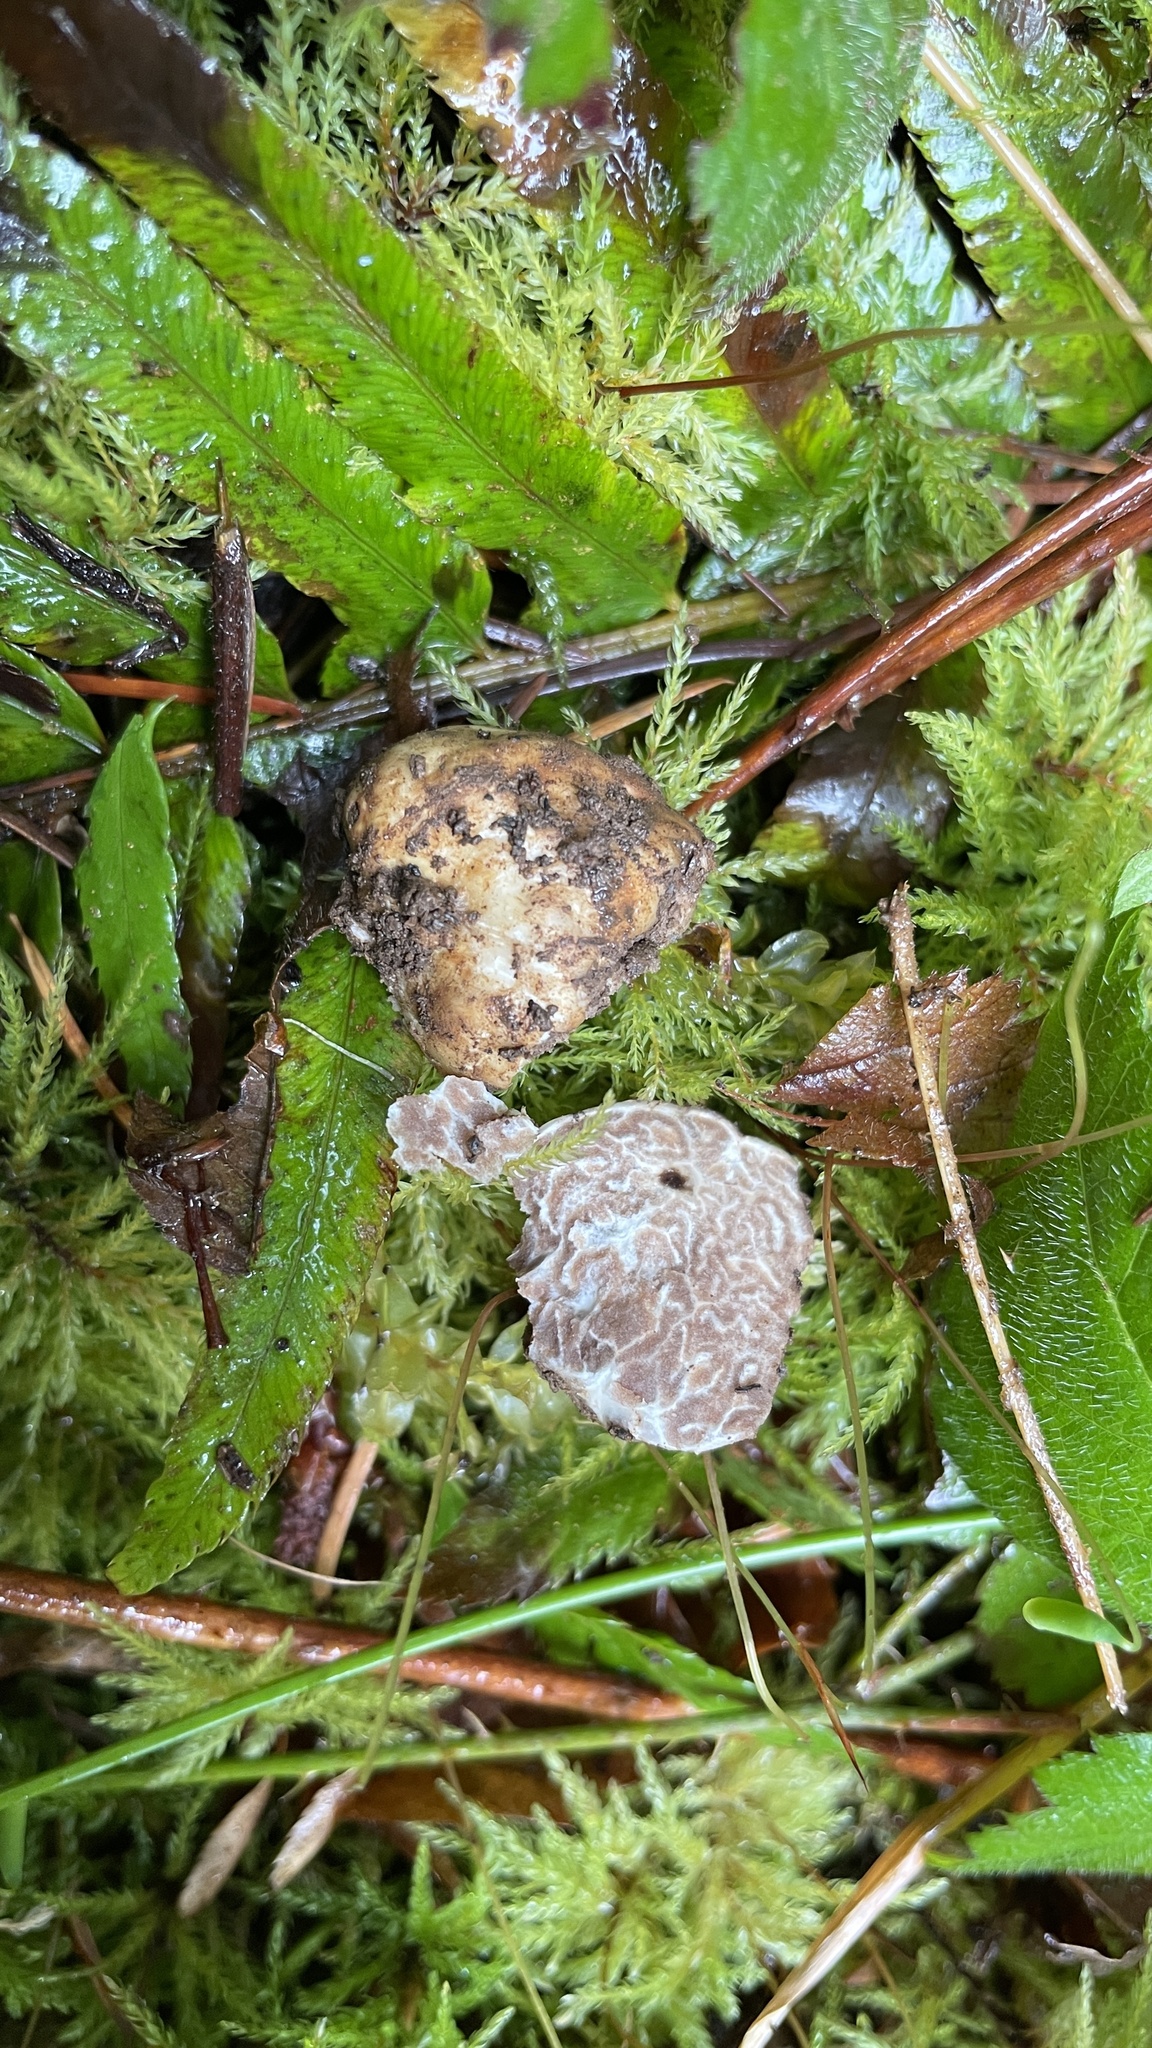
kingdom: Fungi
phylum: Ascomycota
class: Pezizomycetes
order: Pezizales
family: Tuberaceae
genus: Tuber
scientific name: Tuber oregonense
